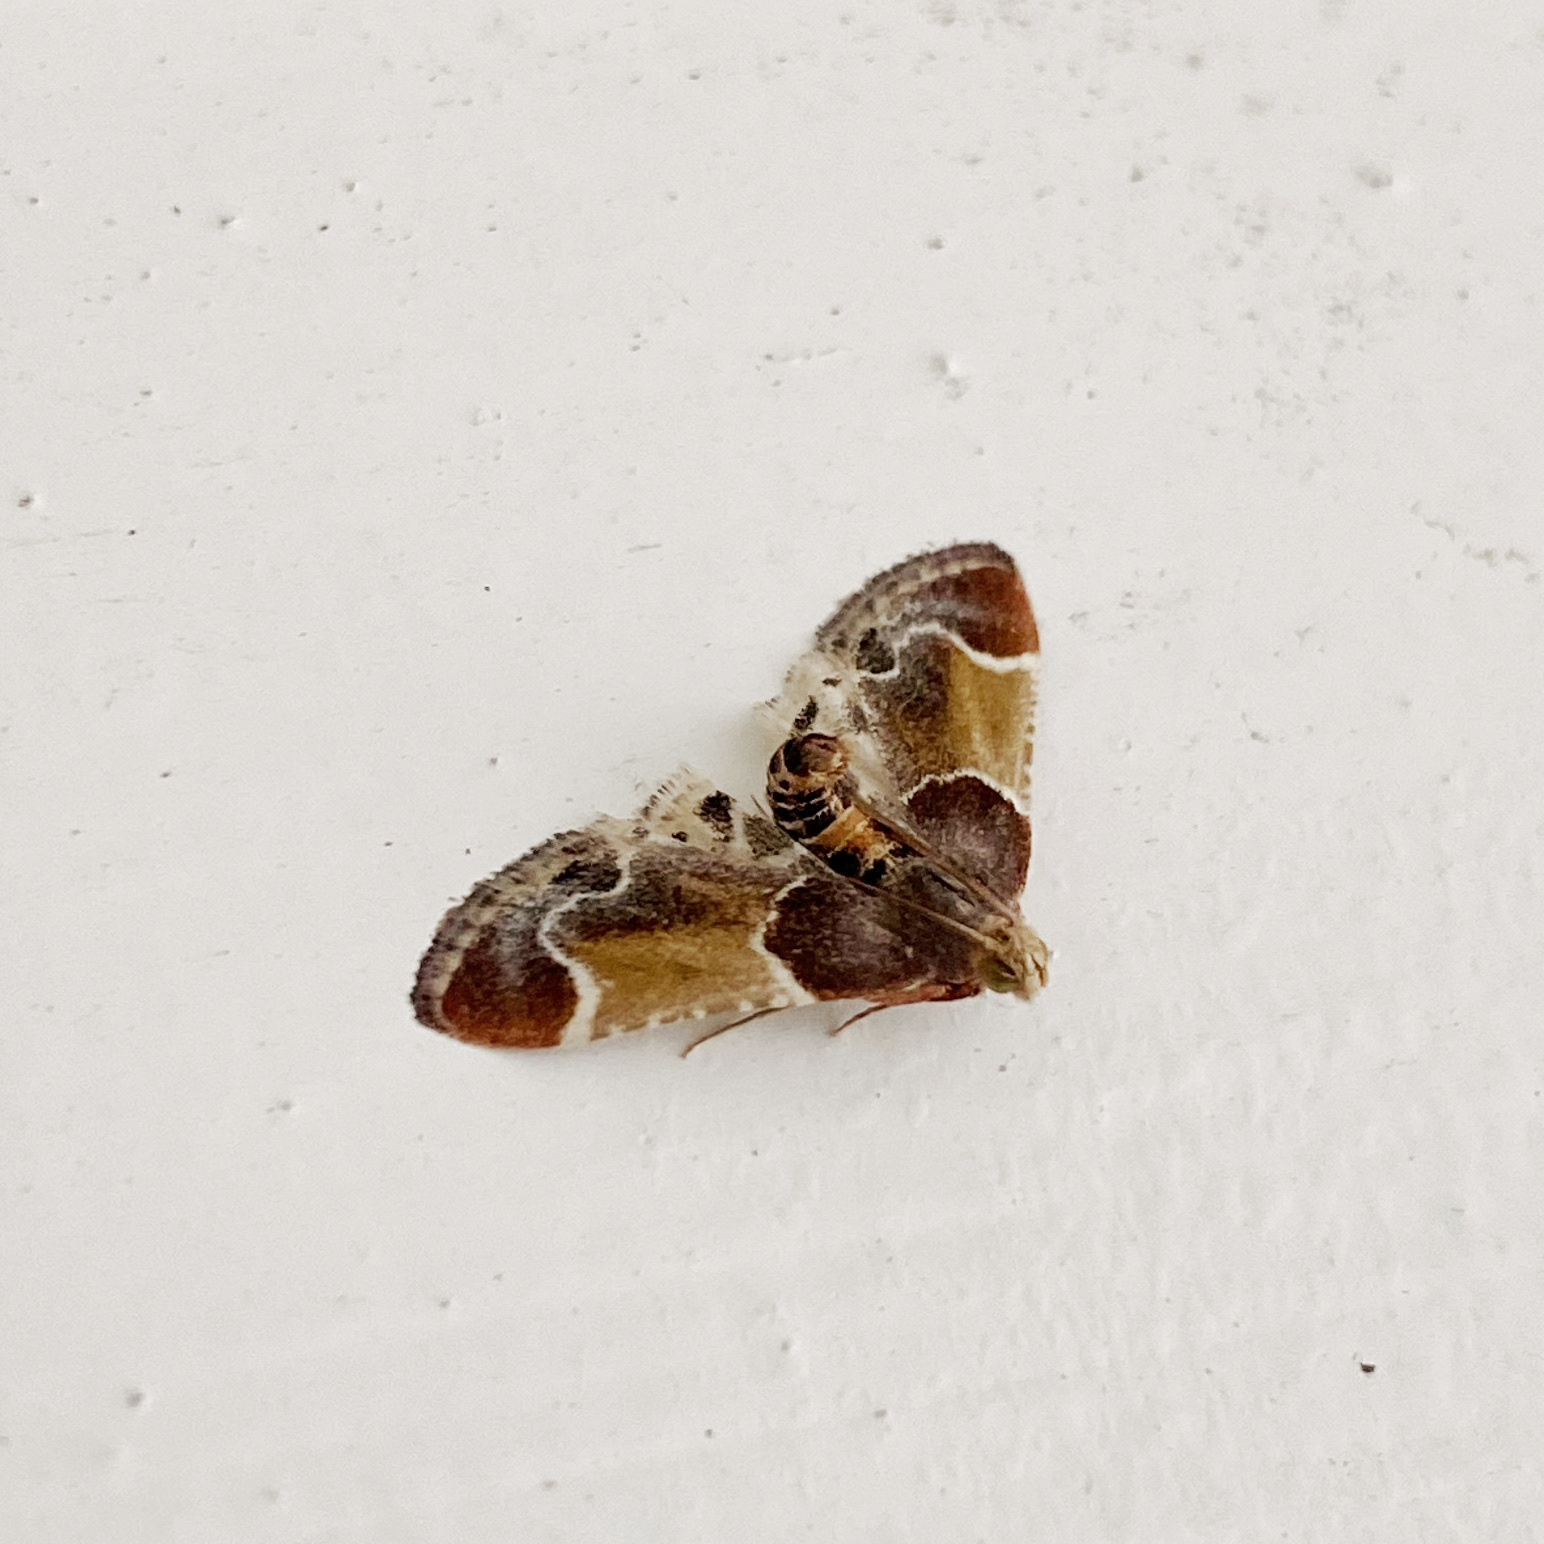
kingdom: Animalia
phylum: Arthropoda
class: Insecta
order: Lepidoptera
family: Pyralidae
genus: Pyralis
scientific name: Pyralis farinalis
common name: Meal moth
